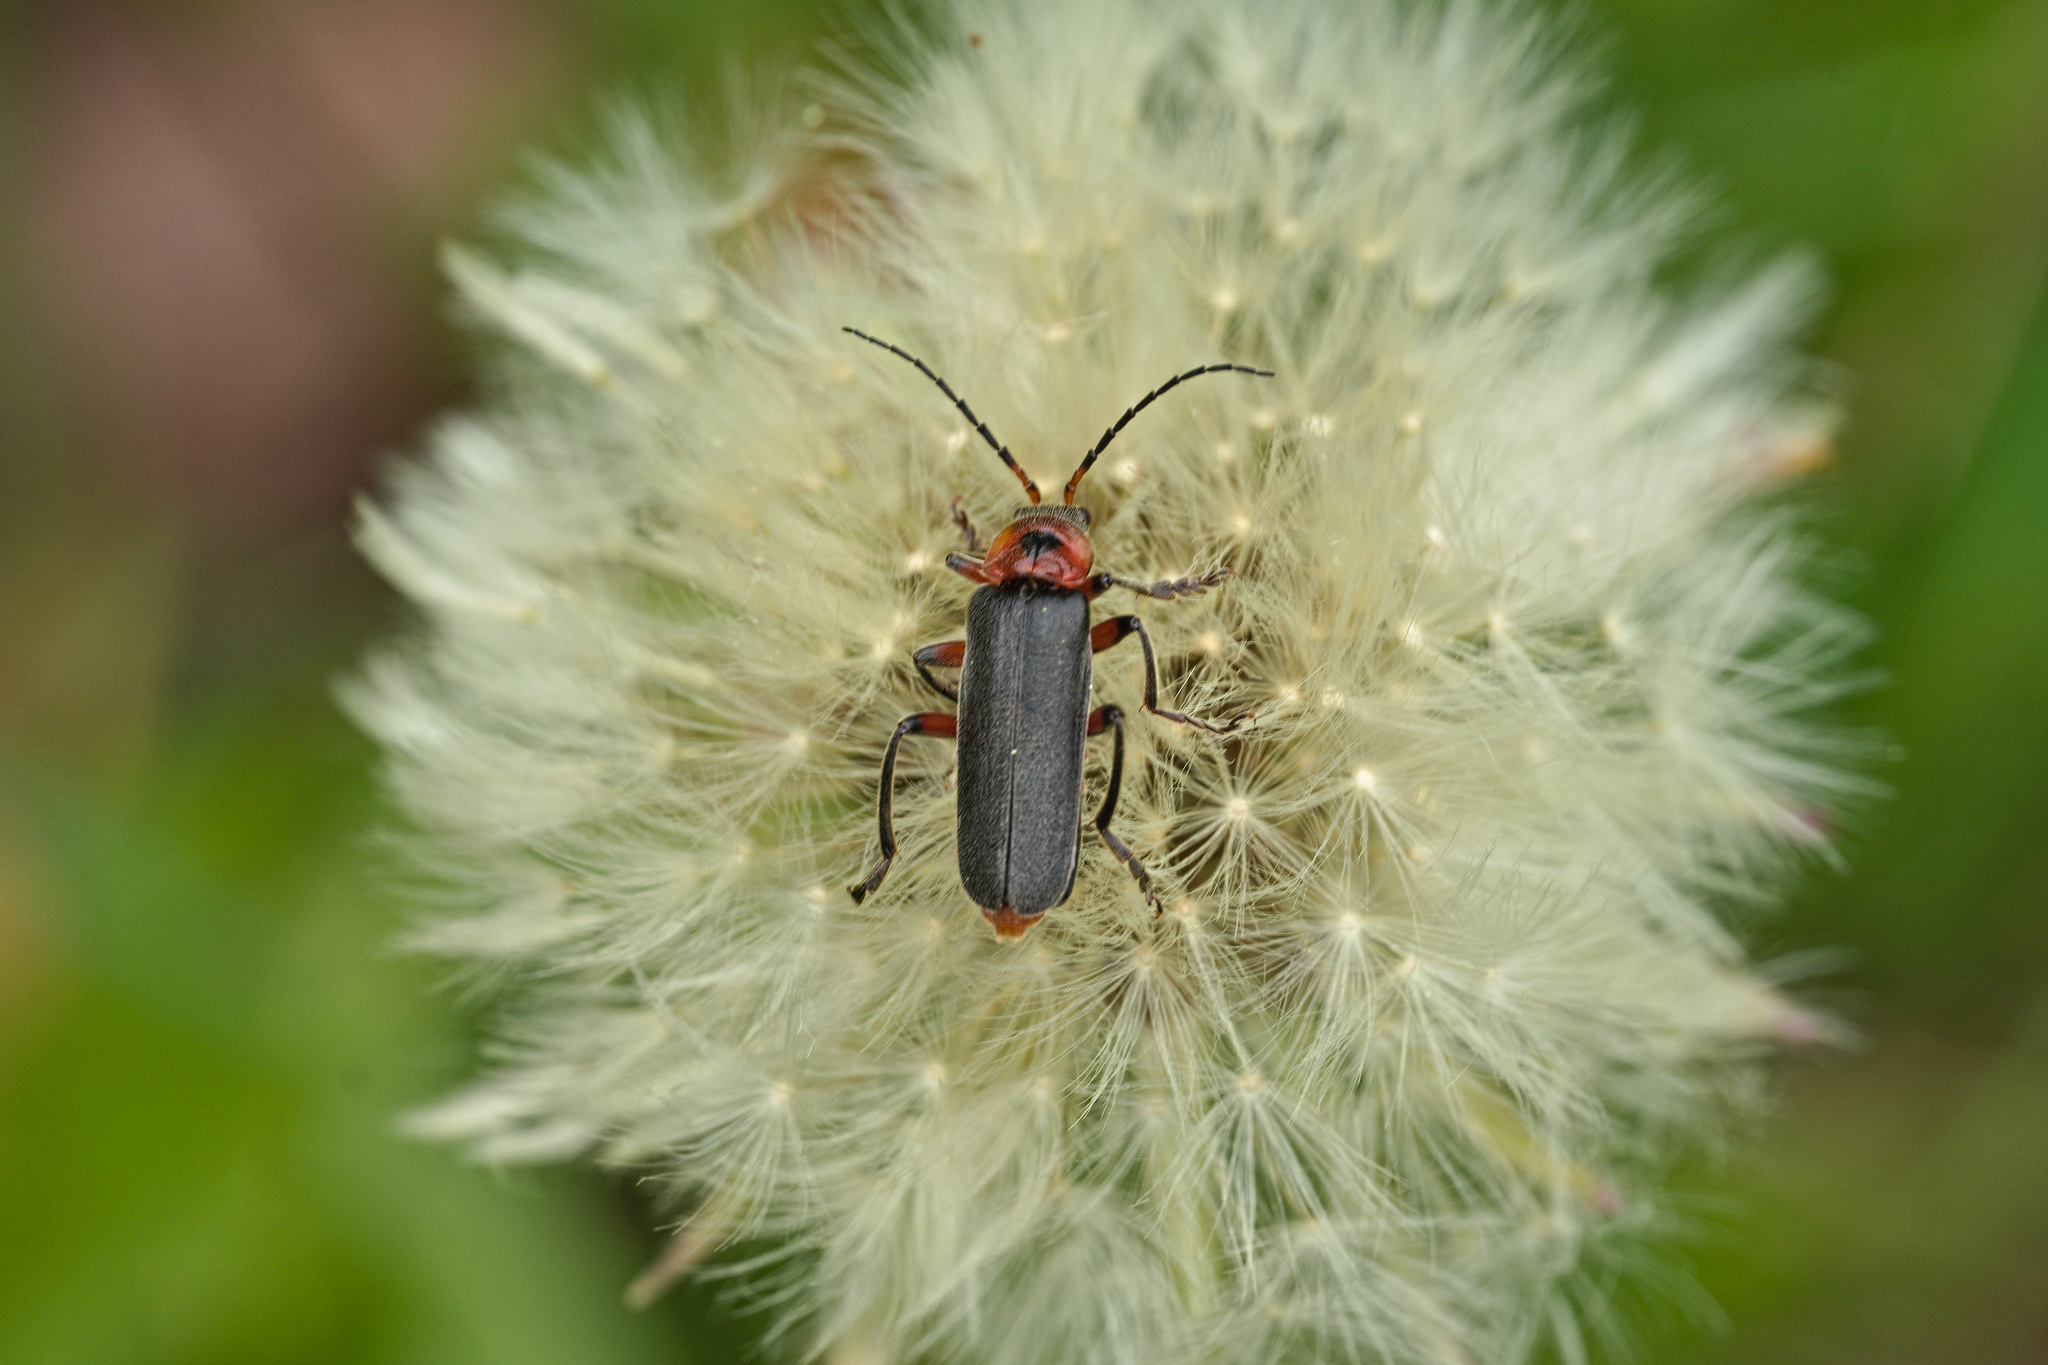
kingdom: Animalia
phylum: Arthropoda
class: Insecta
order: Coleoptera
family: Cantharidae
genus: Cantharis
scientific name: Cantharis rustica
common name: Soldier beetle
